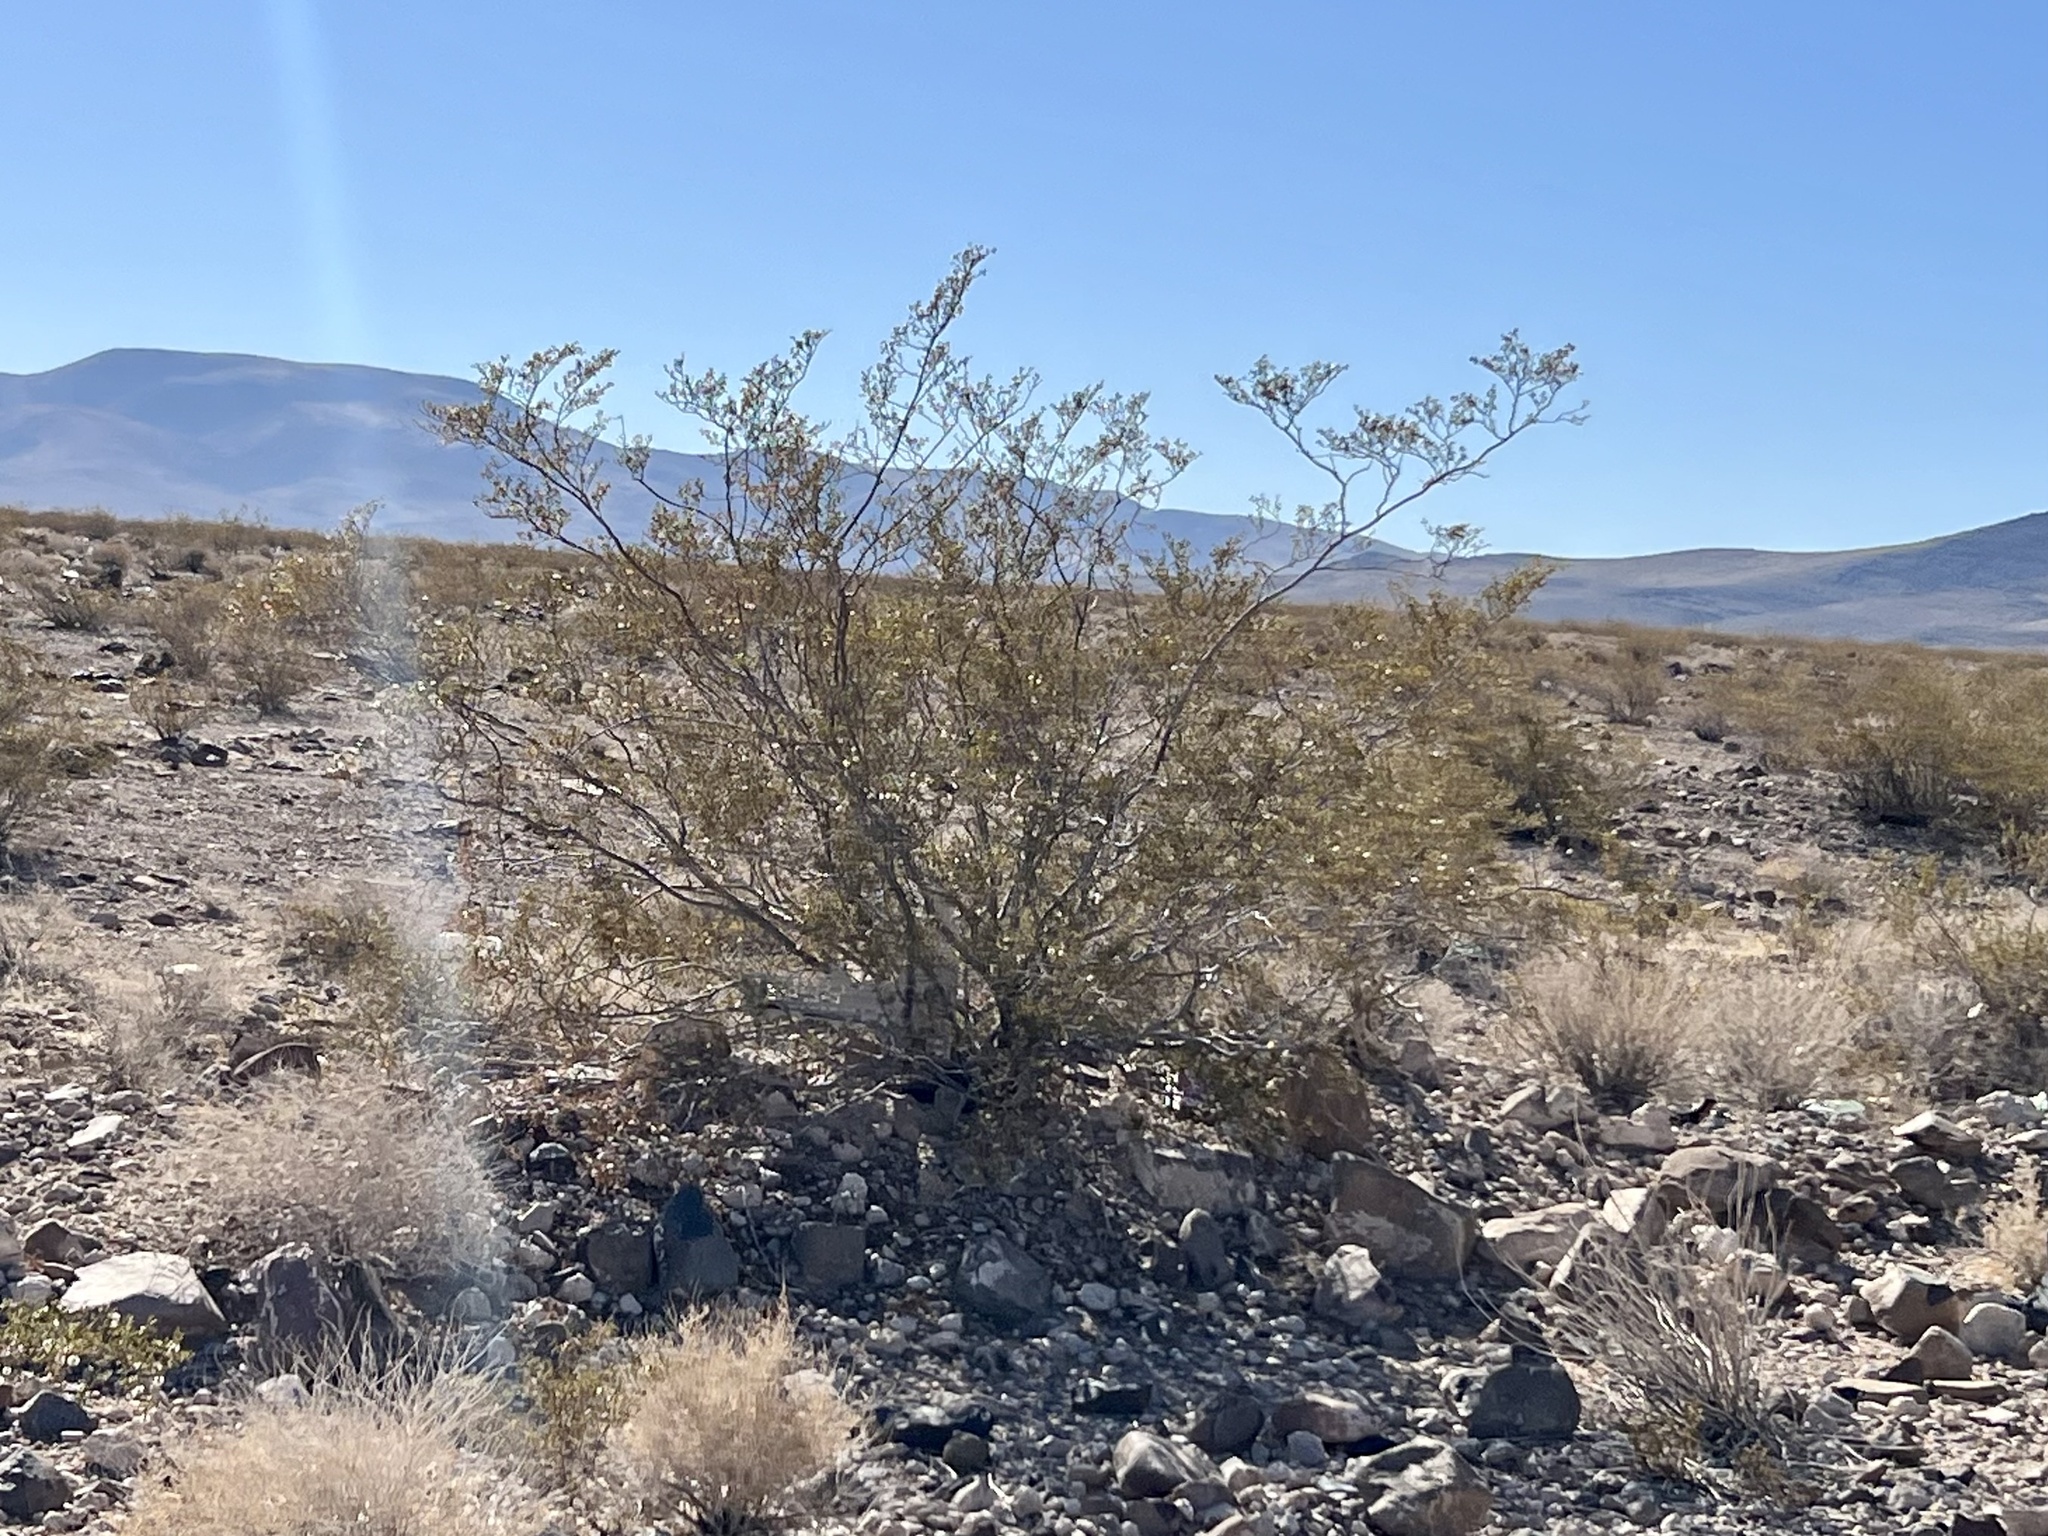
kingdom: Plantae
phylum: Tracheophyta
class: Magnoliopsida
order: Zygophyllales
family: Zygophyllaceae
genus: Larrea
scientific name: Larrea tridentata
